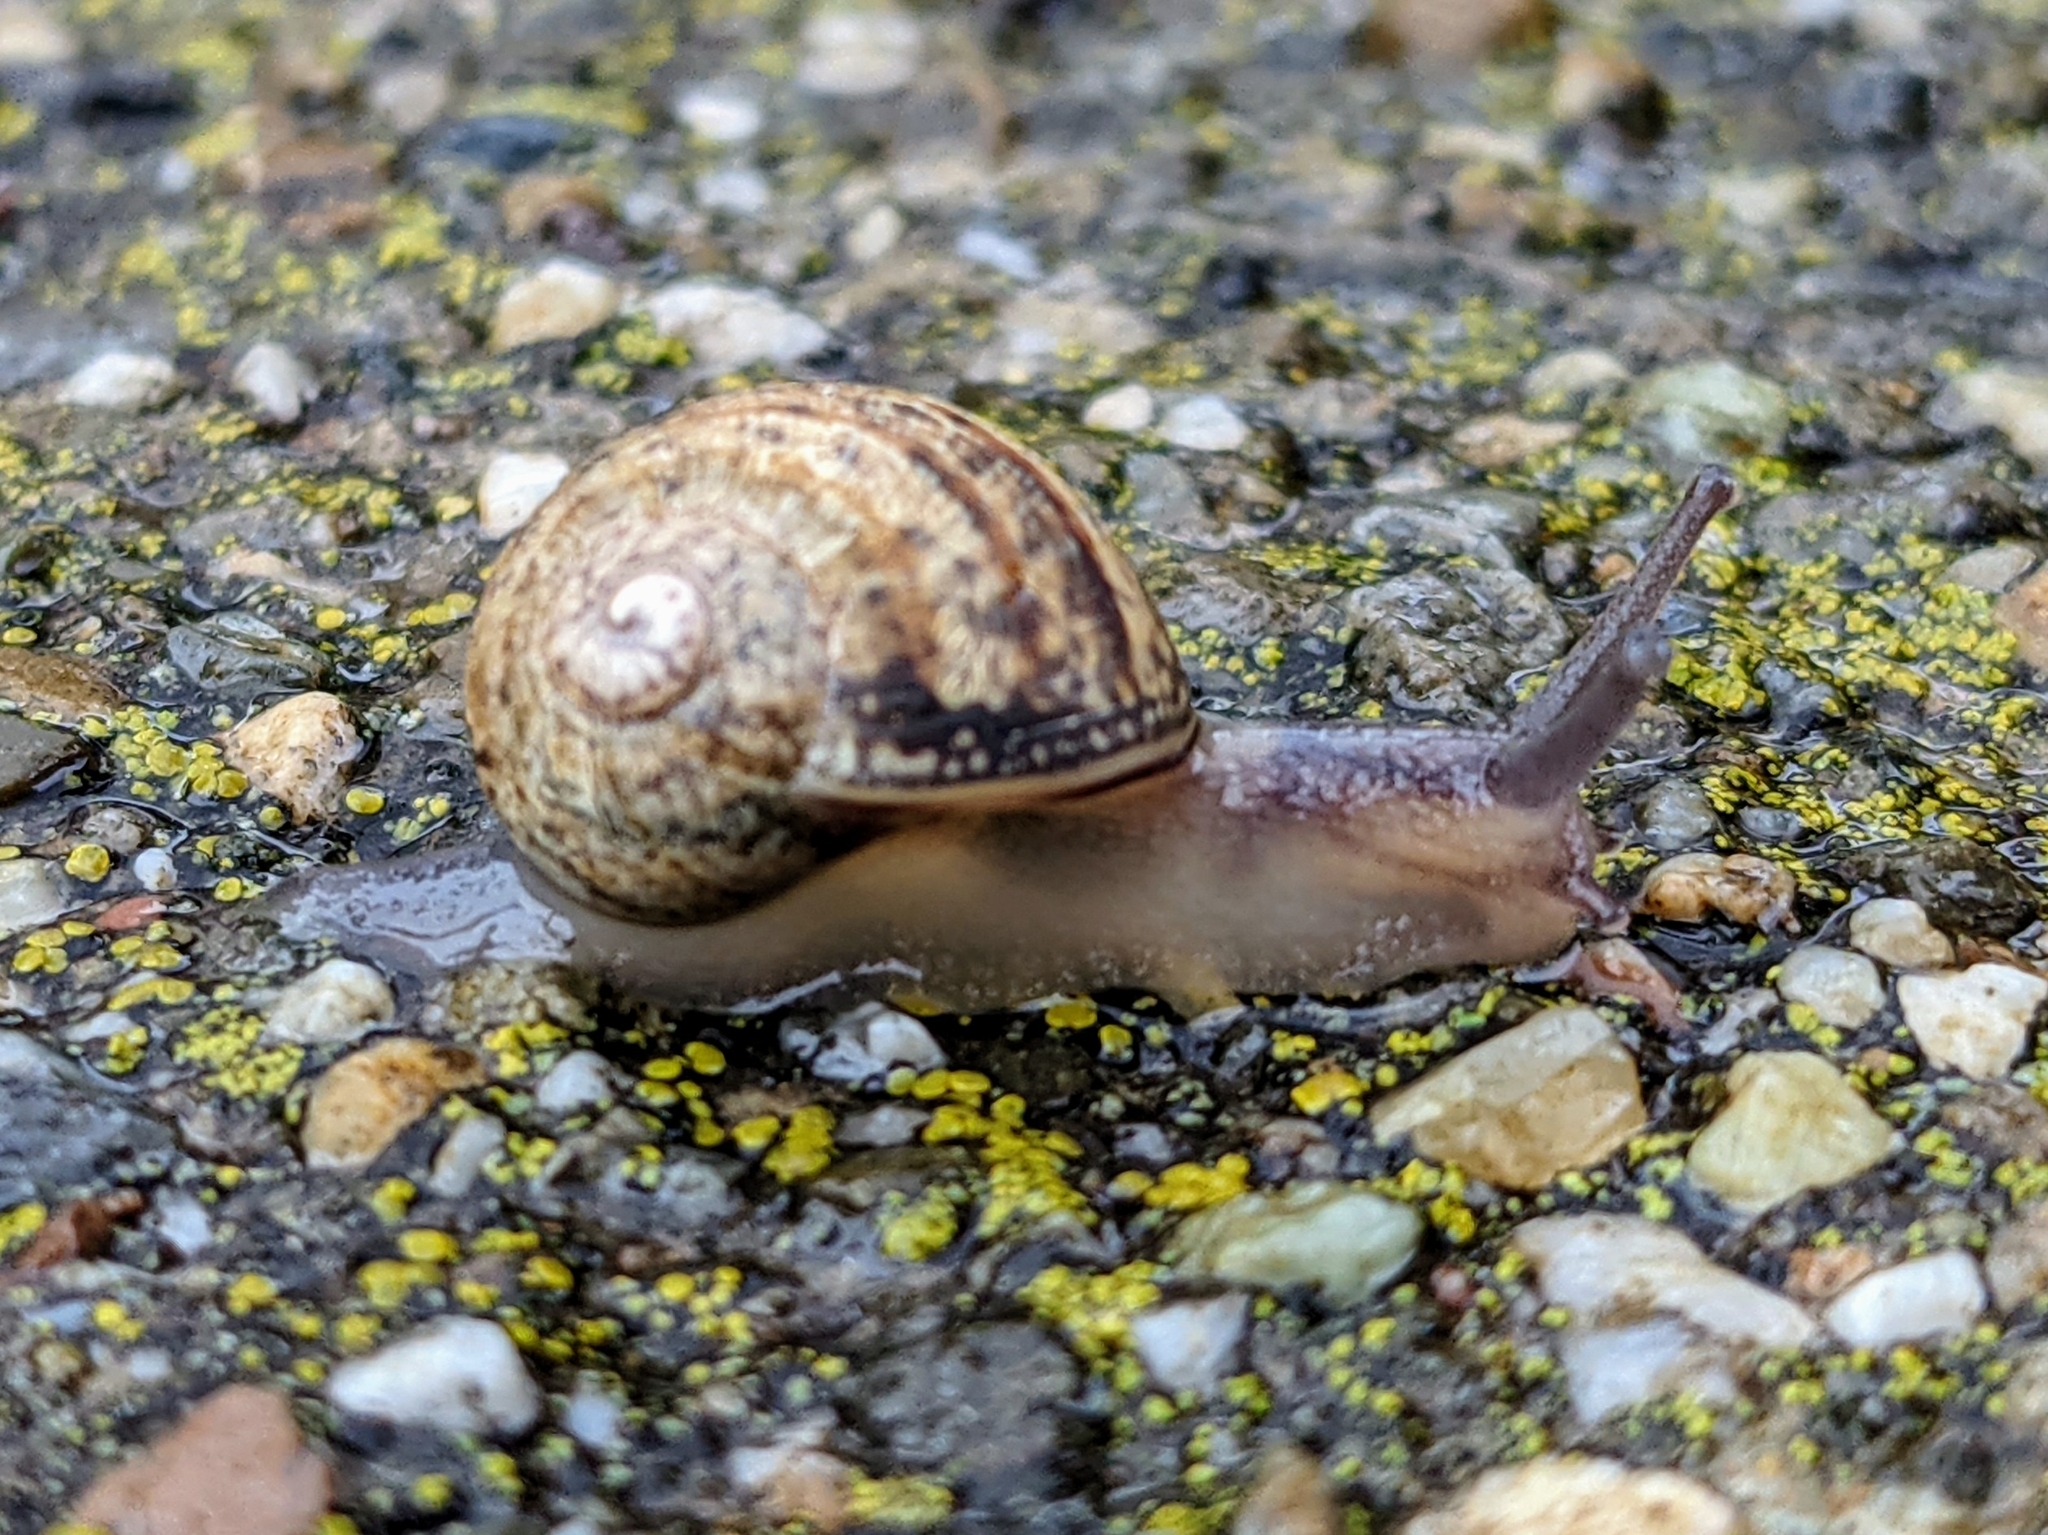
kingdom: Animalia
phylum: Mollusca
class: Gastropoda
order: Stylommatophora
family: Helicidae
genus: Cornu
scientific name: Cornu aspersum
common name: Brown garden snail
